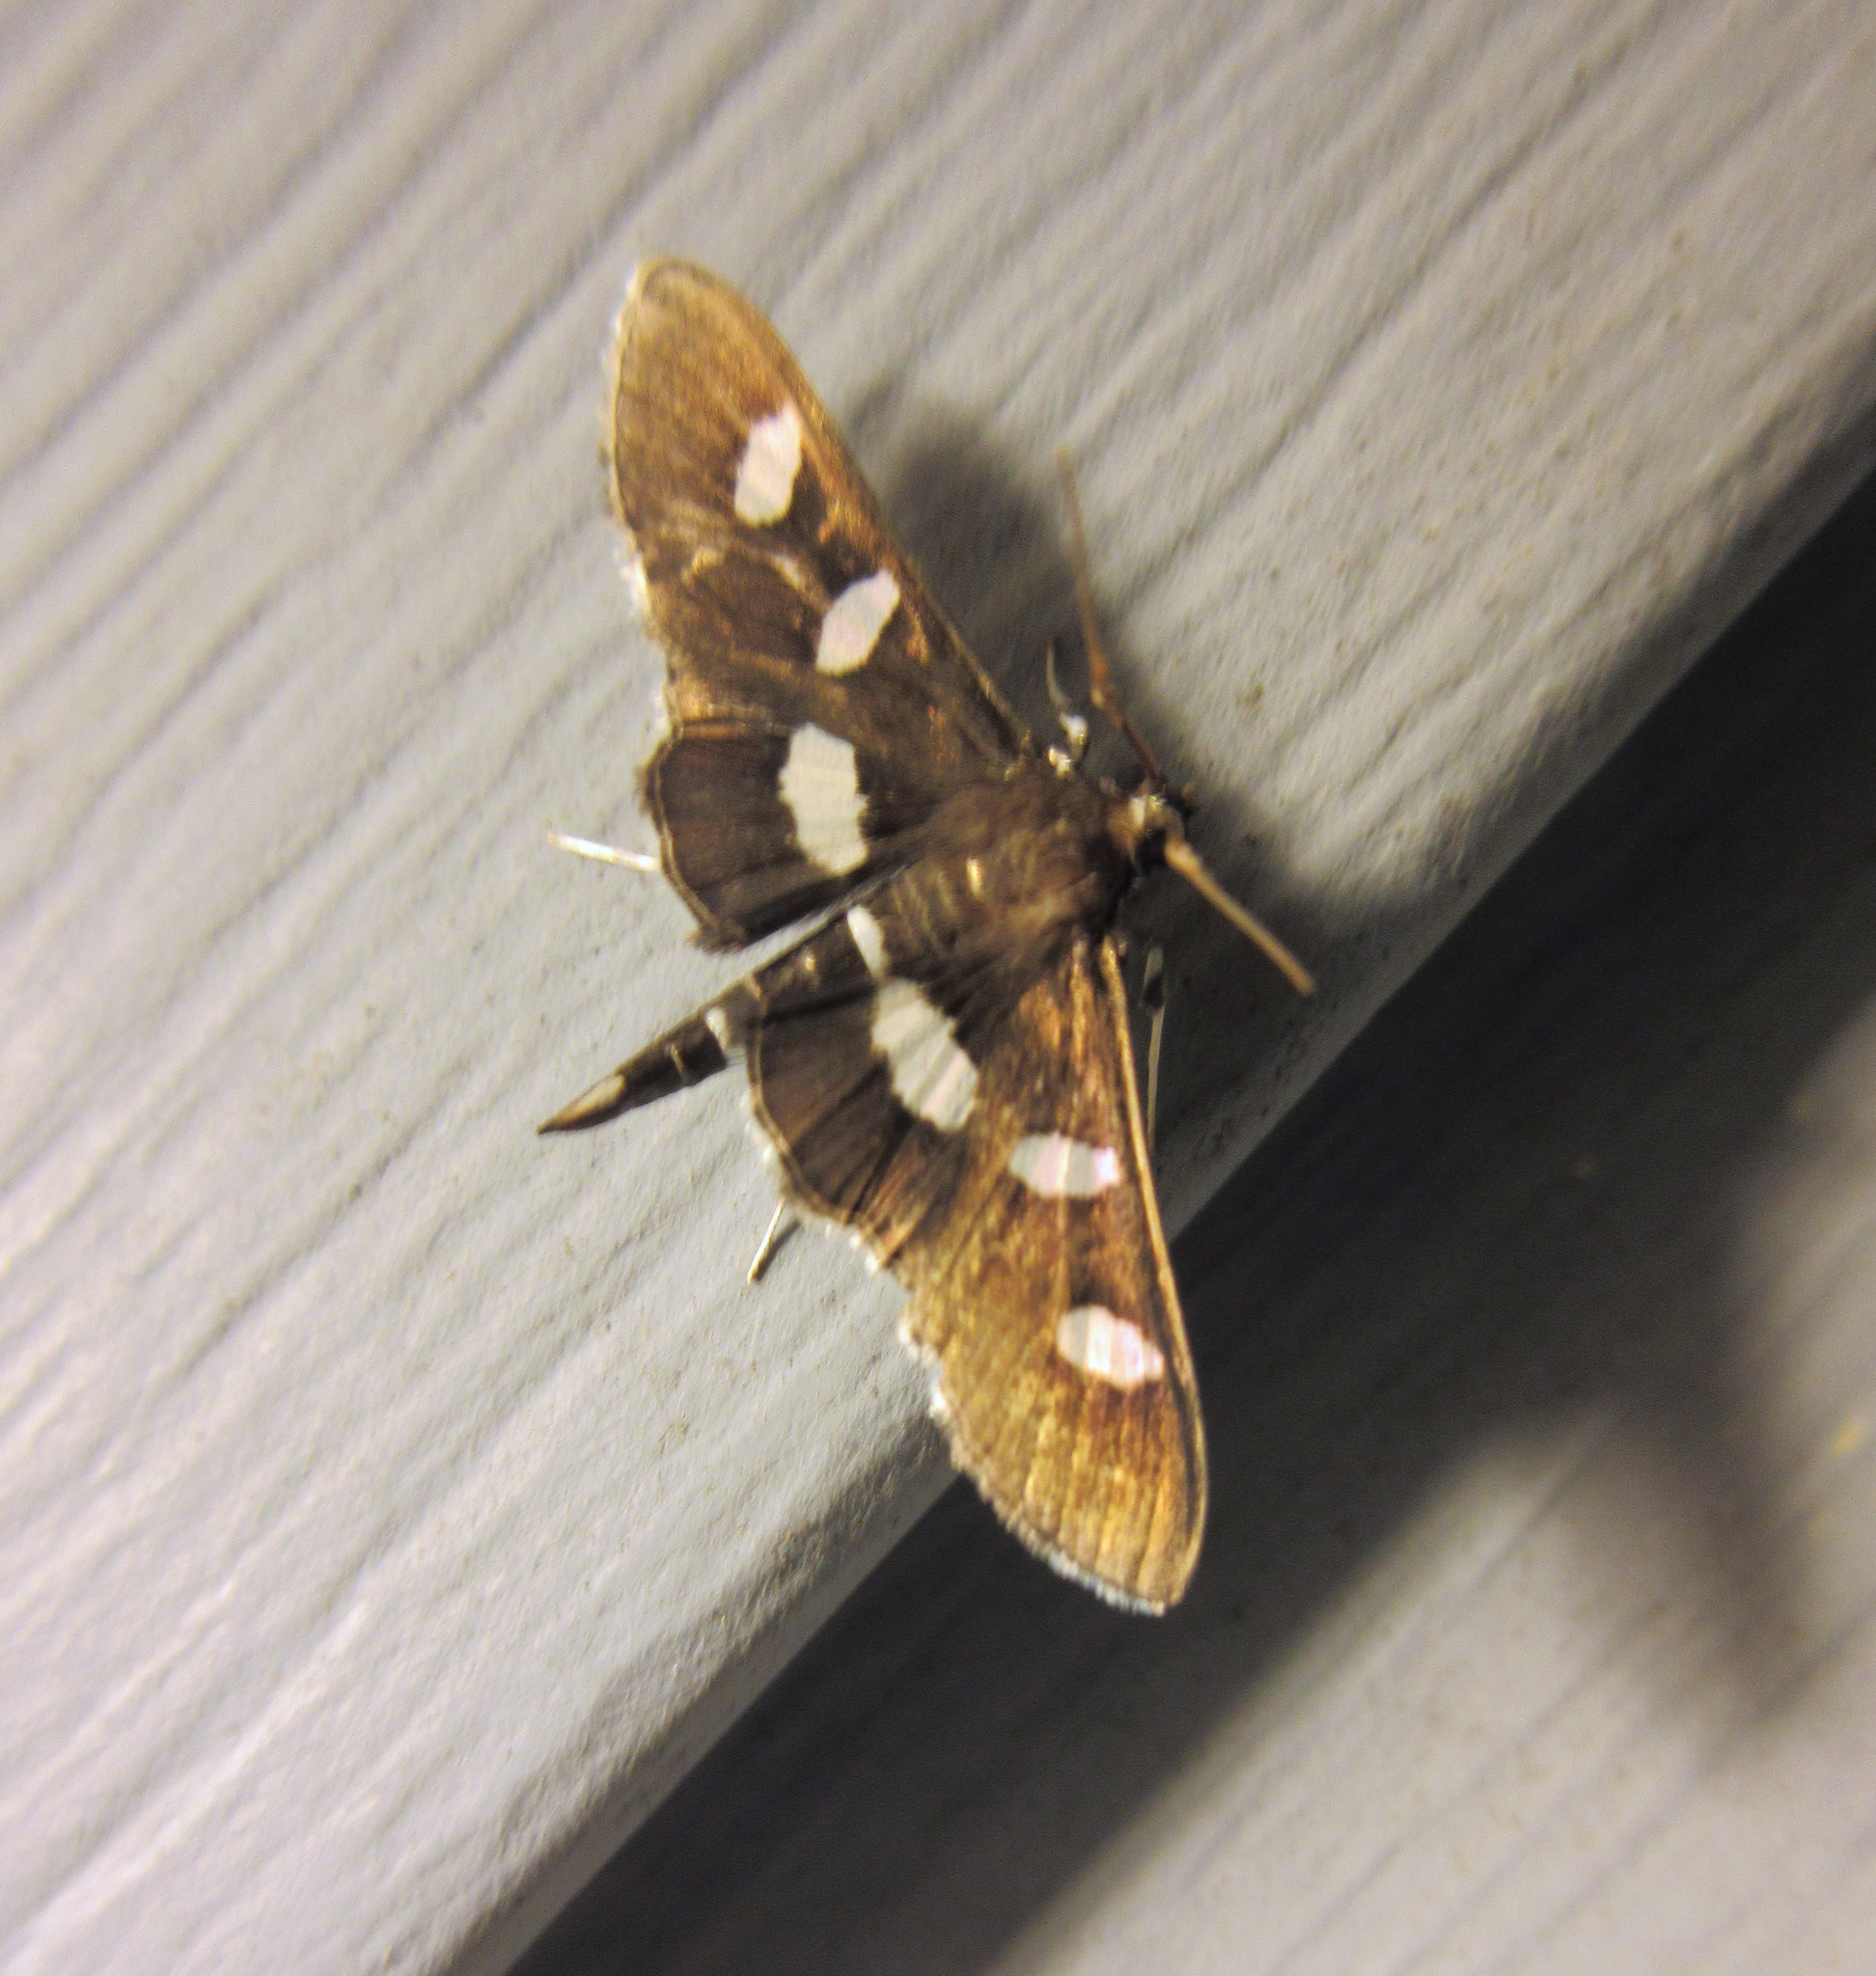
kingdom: Animalia
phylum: Arthropoda
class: Insecta
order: Lepidoptera
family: Crambidae
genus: Desmia
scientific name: Desmia
